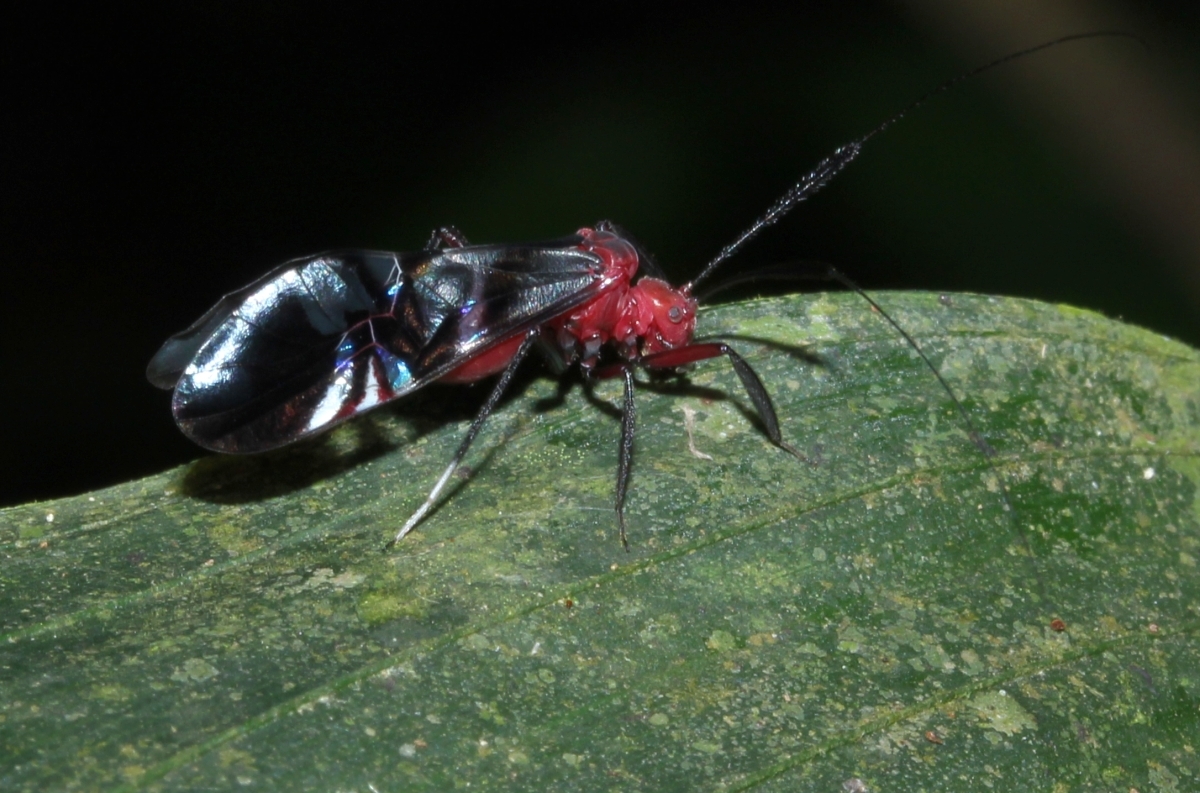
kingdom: Animalia
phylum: Arthropoda
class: Insecta
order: Psocodea
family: Psocidae
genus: Thyrsophorus
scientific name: Thyrsophorus
